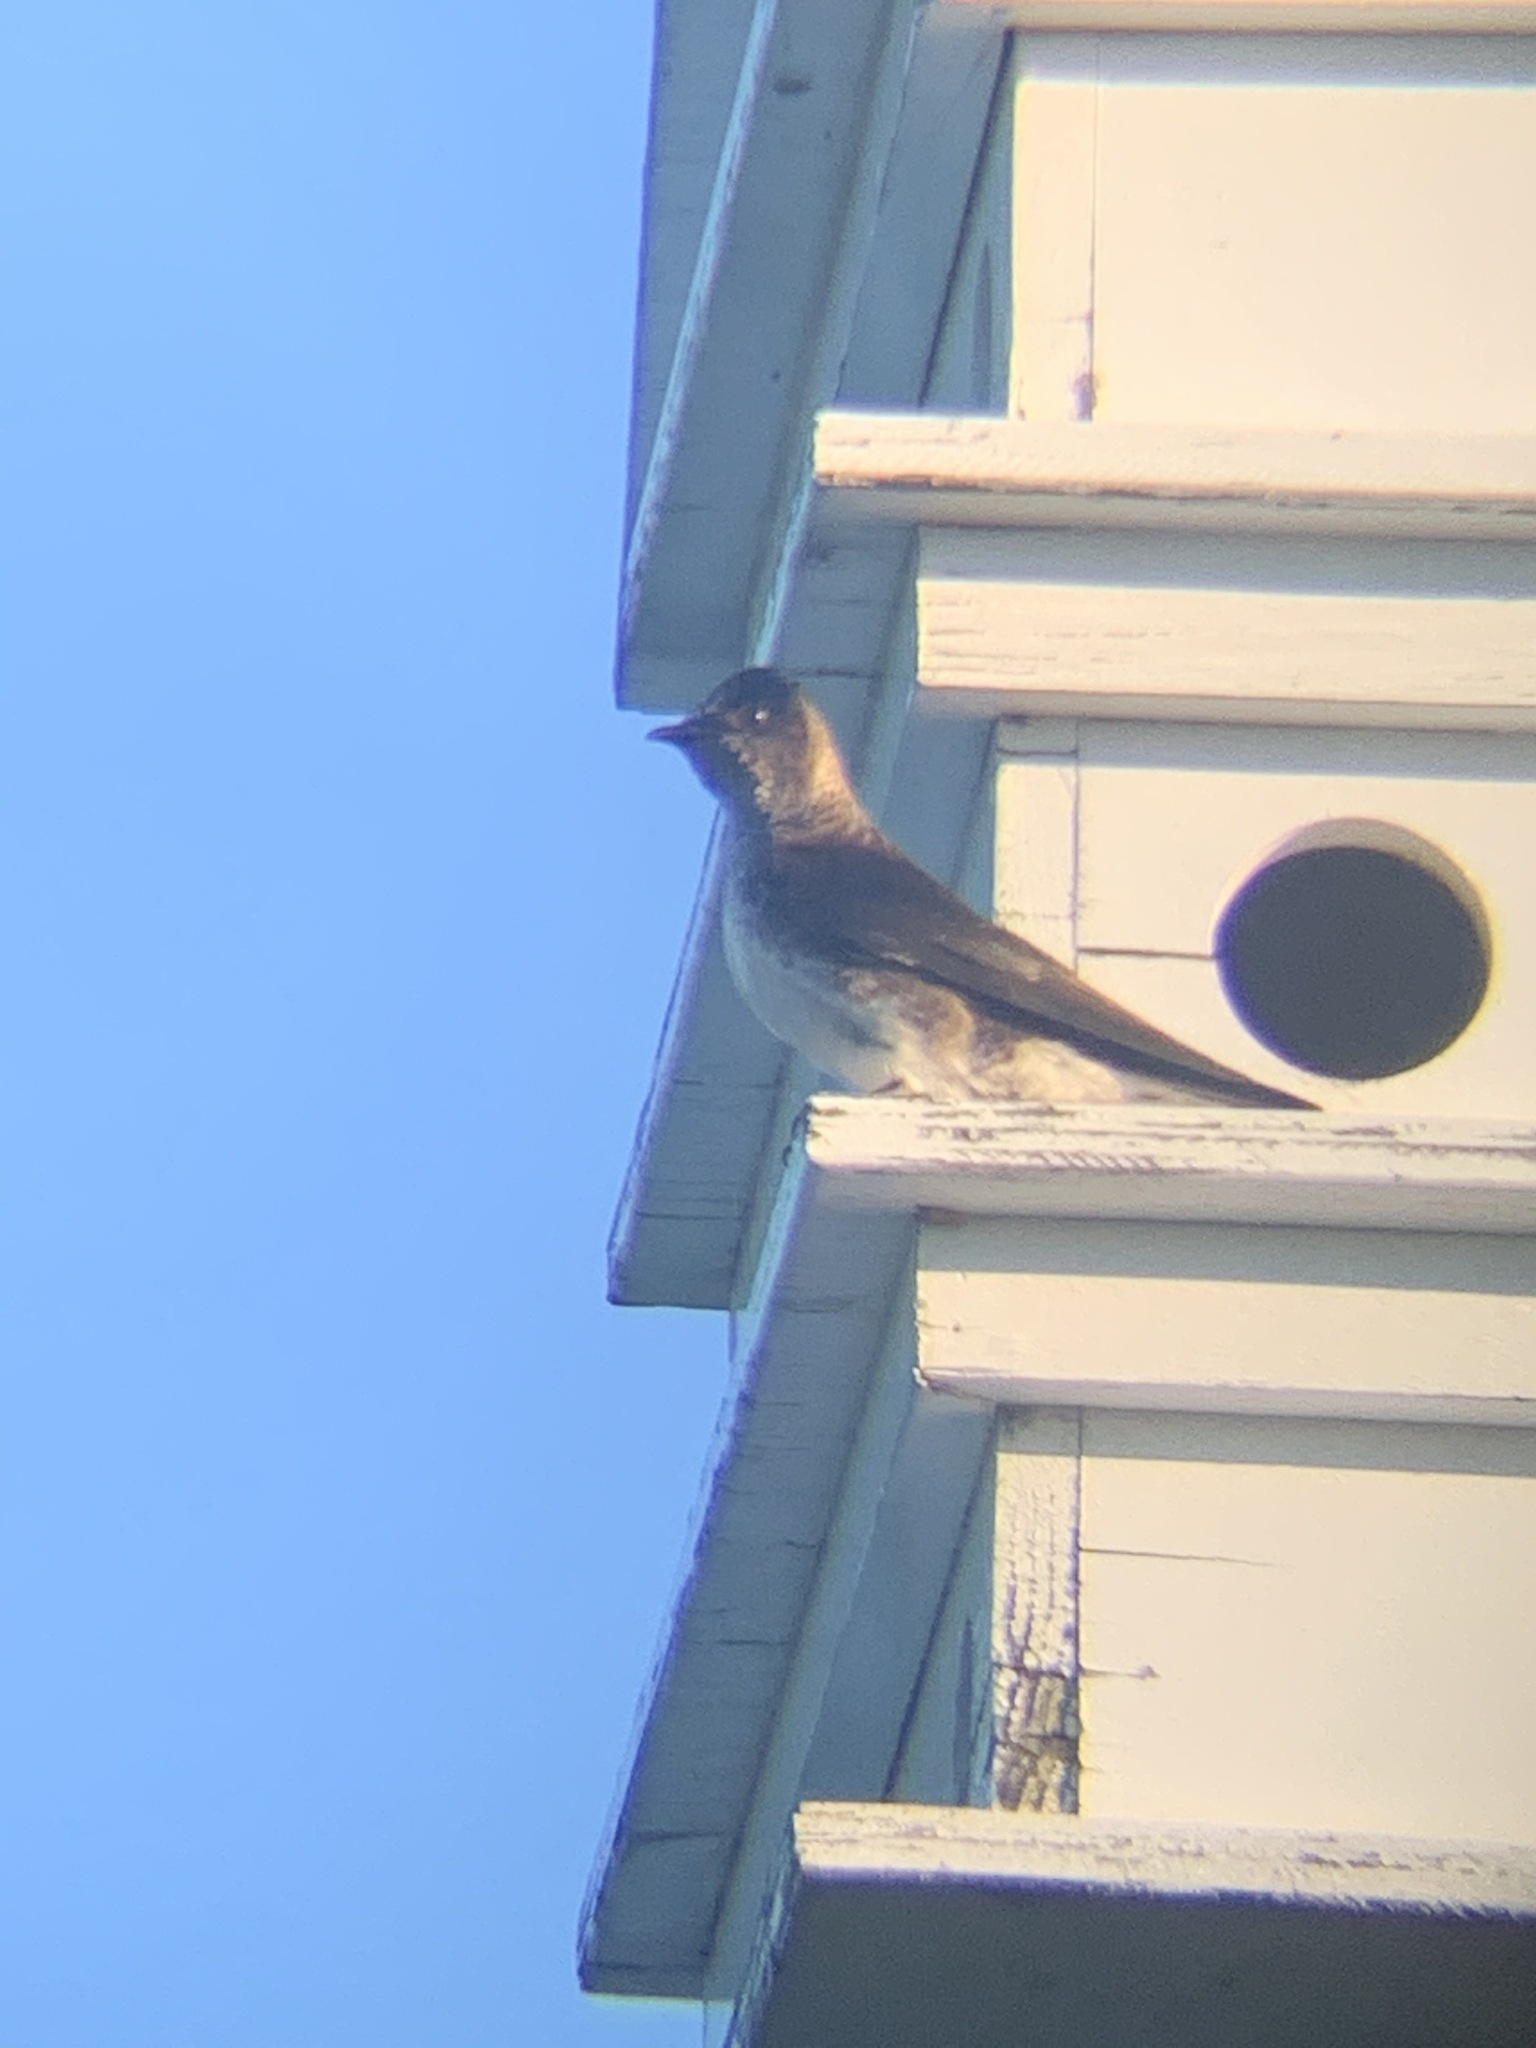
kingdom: Animalia
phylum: Chordata
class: Aves
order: Passeriformes
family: Hirundinidae
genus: Progne
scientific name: Progne subis
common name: Purple martin
